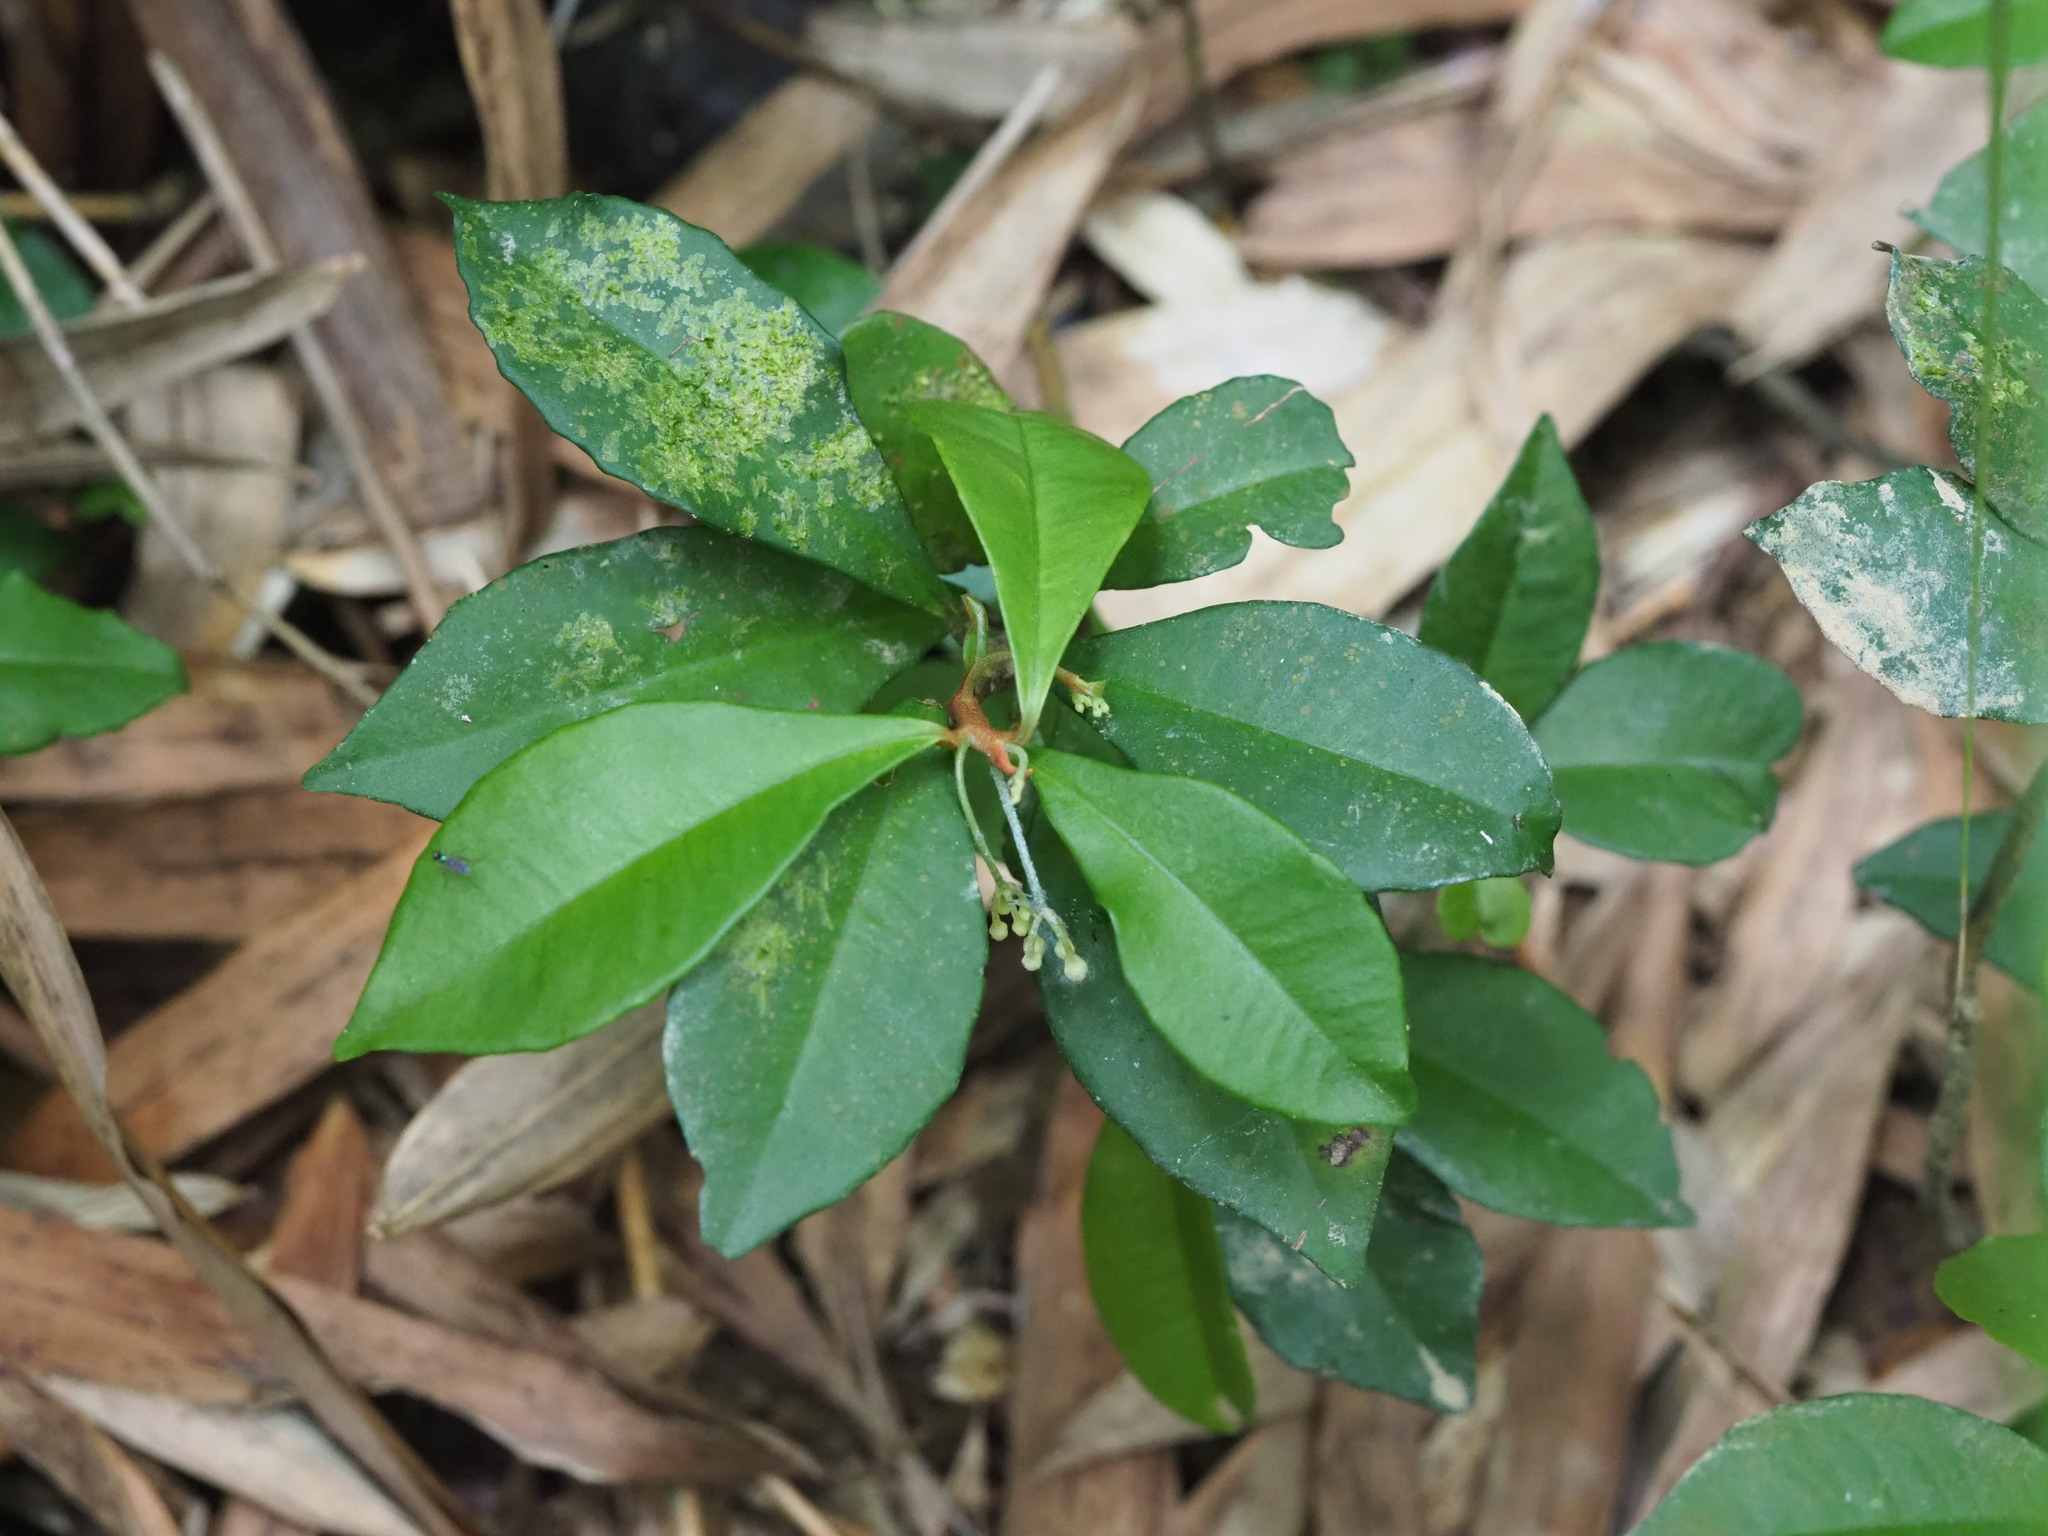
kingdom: Plantae
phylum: Tracheophyta
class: Magnoliopsida
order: Ericales
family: Primulaceae
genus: Ardisia
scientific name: Ardisia cymosa
